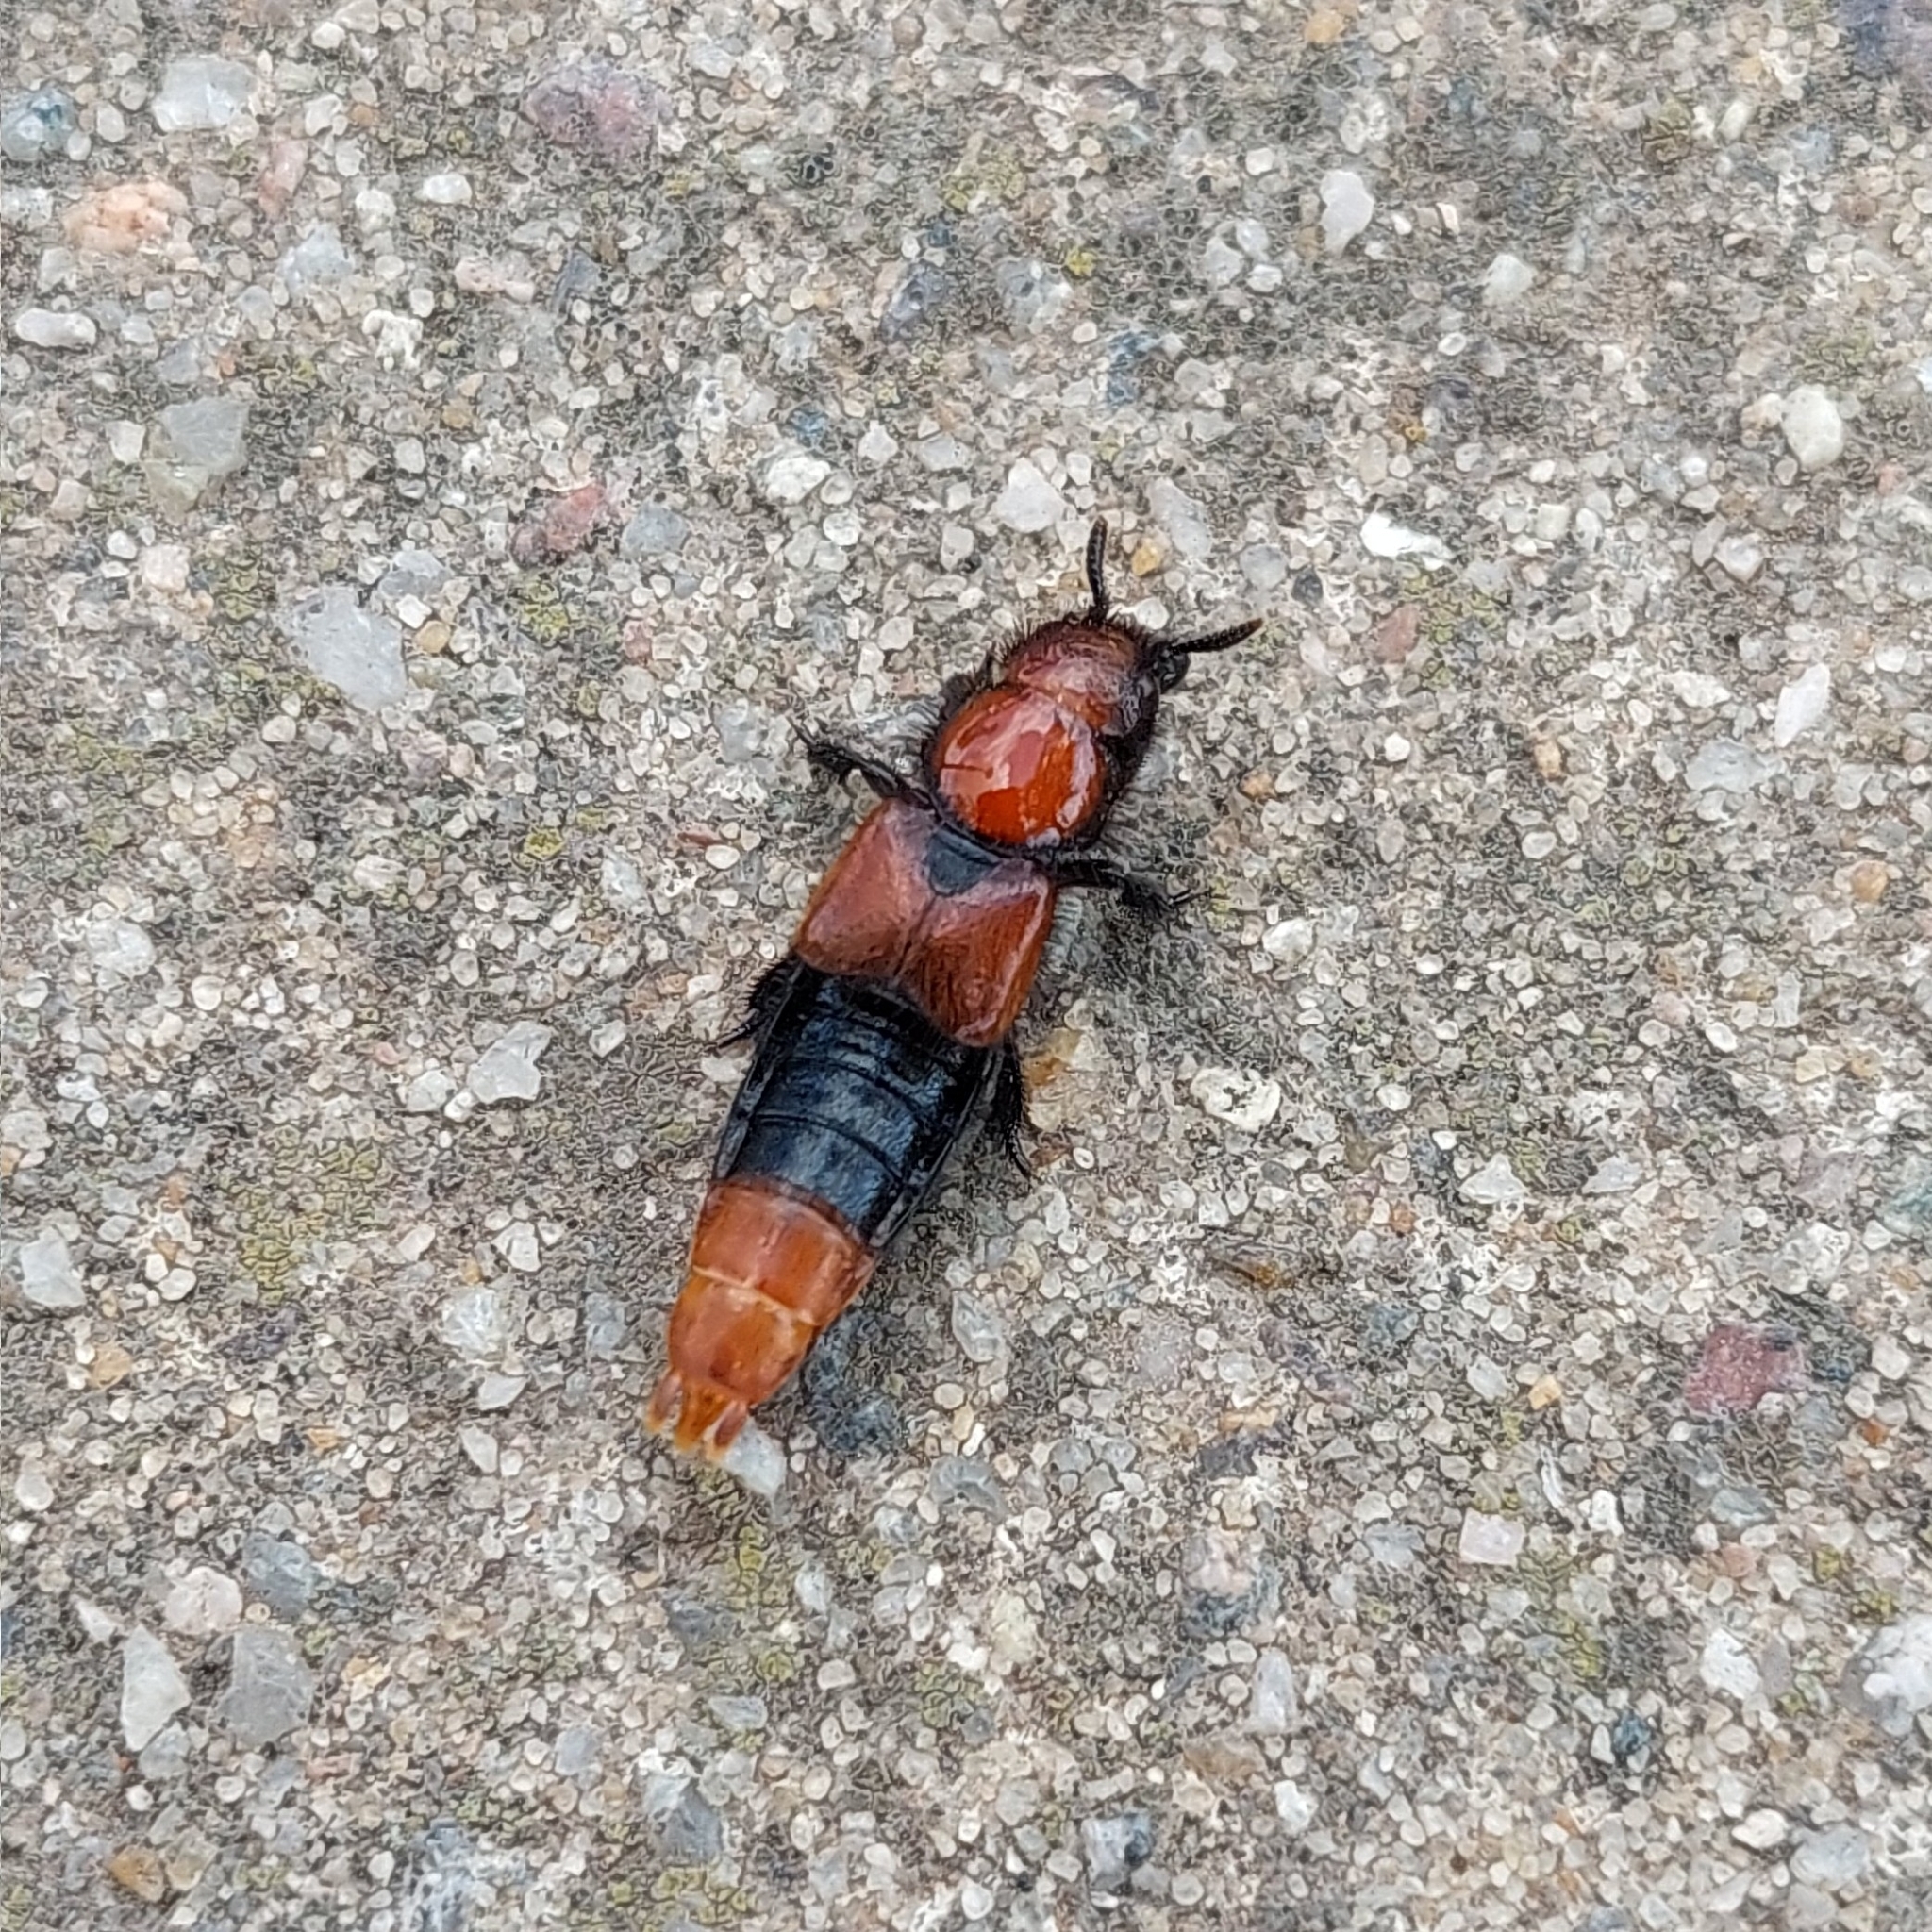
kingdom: Animalia
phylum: Arthropoda
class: Insecta
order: Coleoptera
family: Staphylinidae
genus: Haematodes
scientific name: Haematodes bicolor
